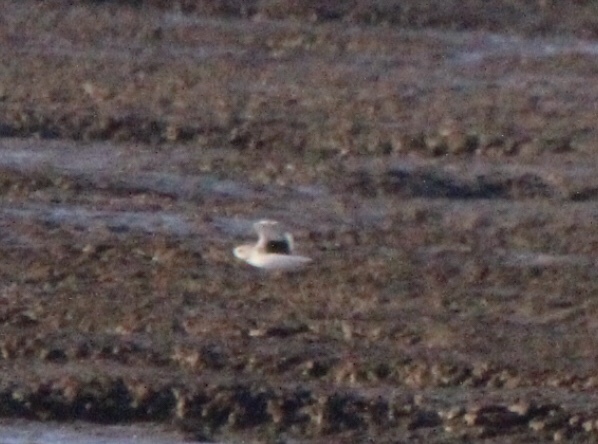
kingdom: Animalia
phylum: Chordata
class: Aves
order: Charadriiformes
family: Charadriidae
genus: Pluvialis
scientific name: Pluvialis squatarola
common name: Grey plover
